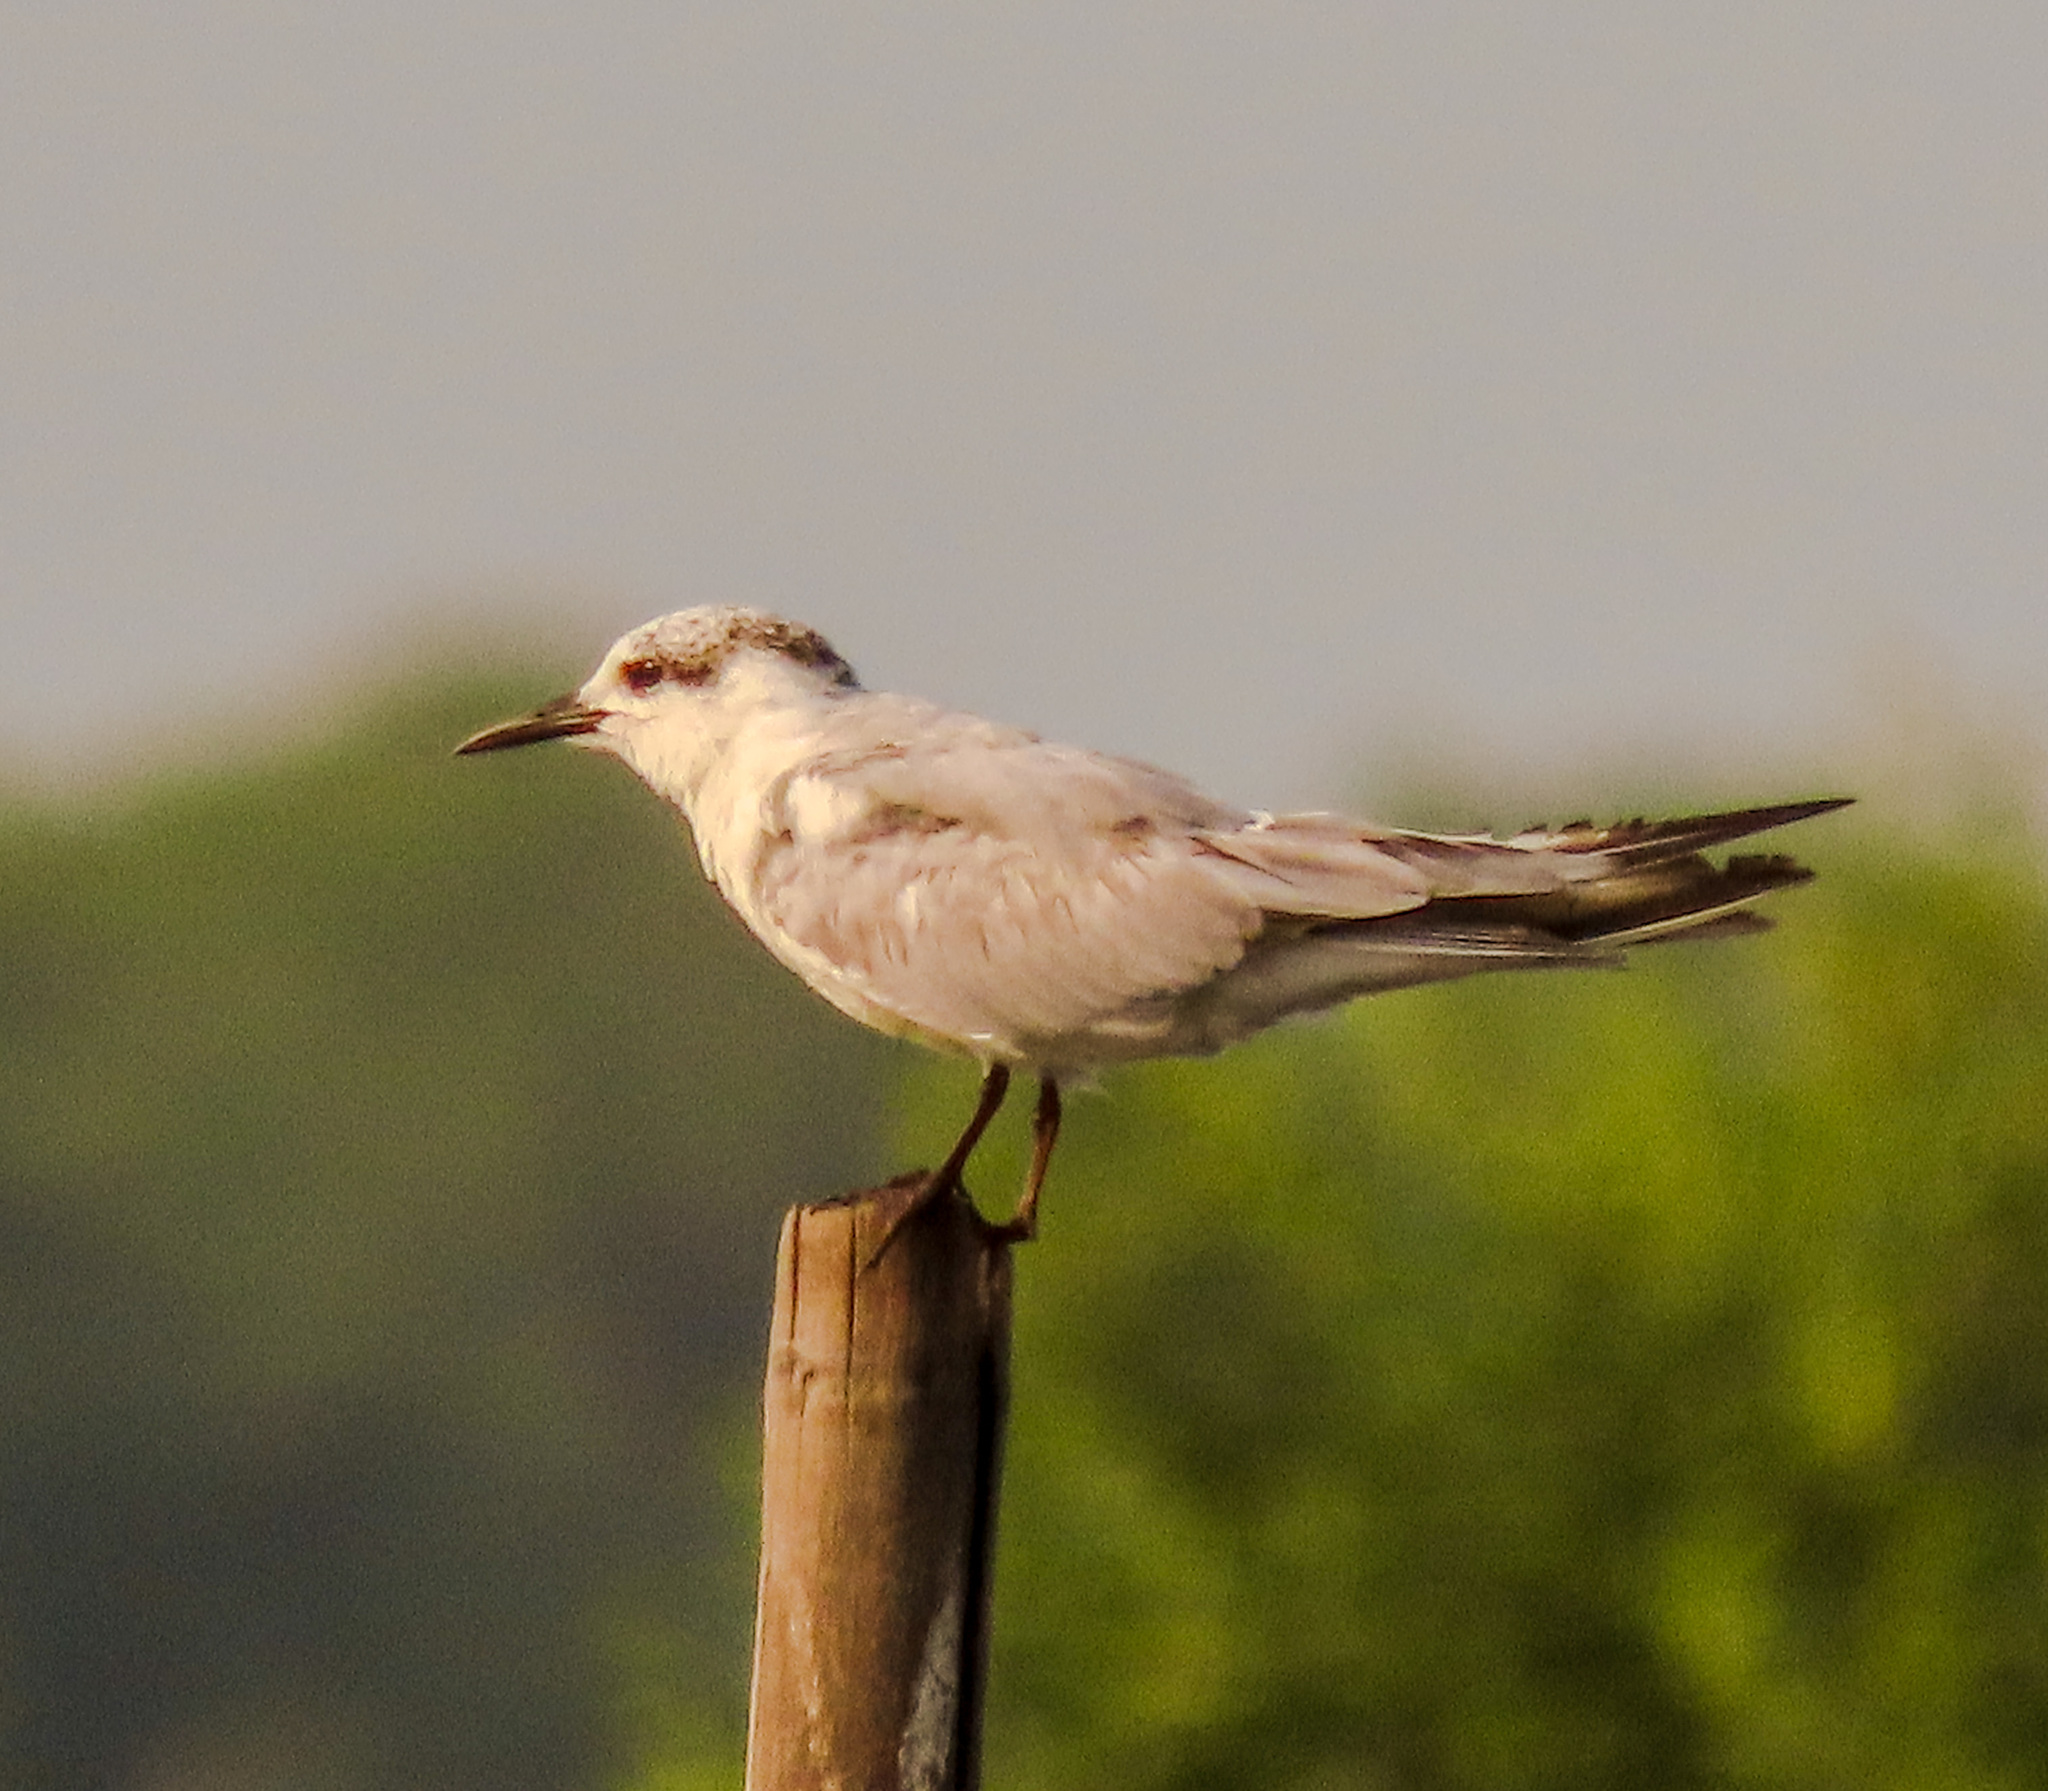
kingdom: Animalia
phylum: Chordata
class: Aves
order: Charadriiformes
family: Laridae
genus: Chlidonias
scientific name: Chlidonias hybrida
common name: Whiskered tern
